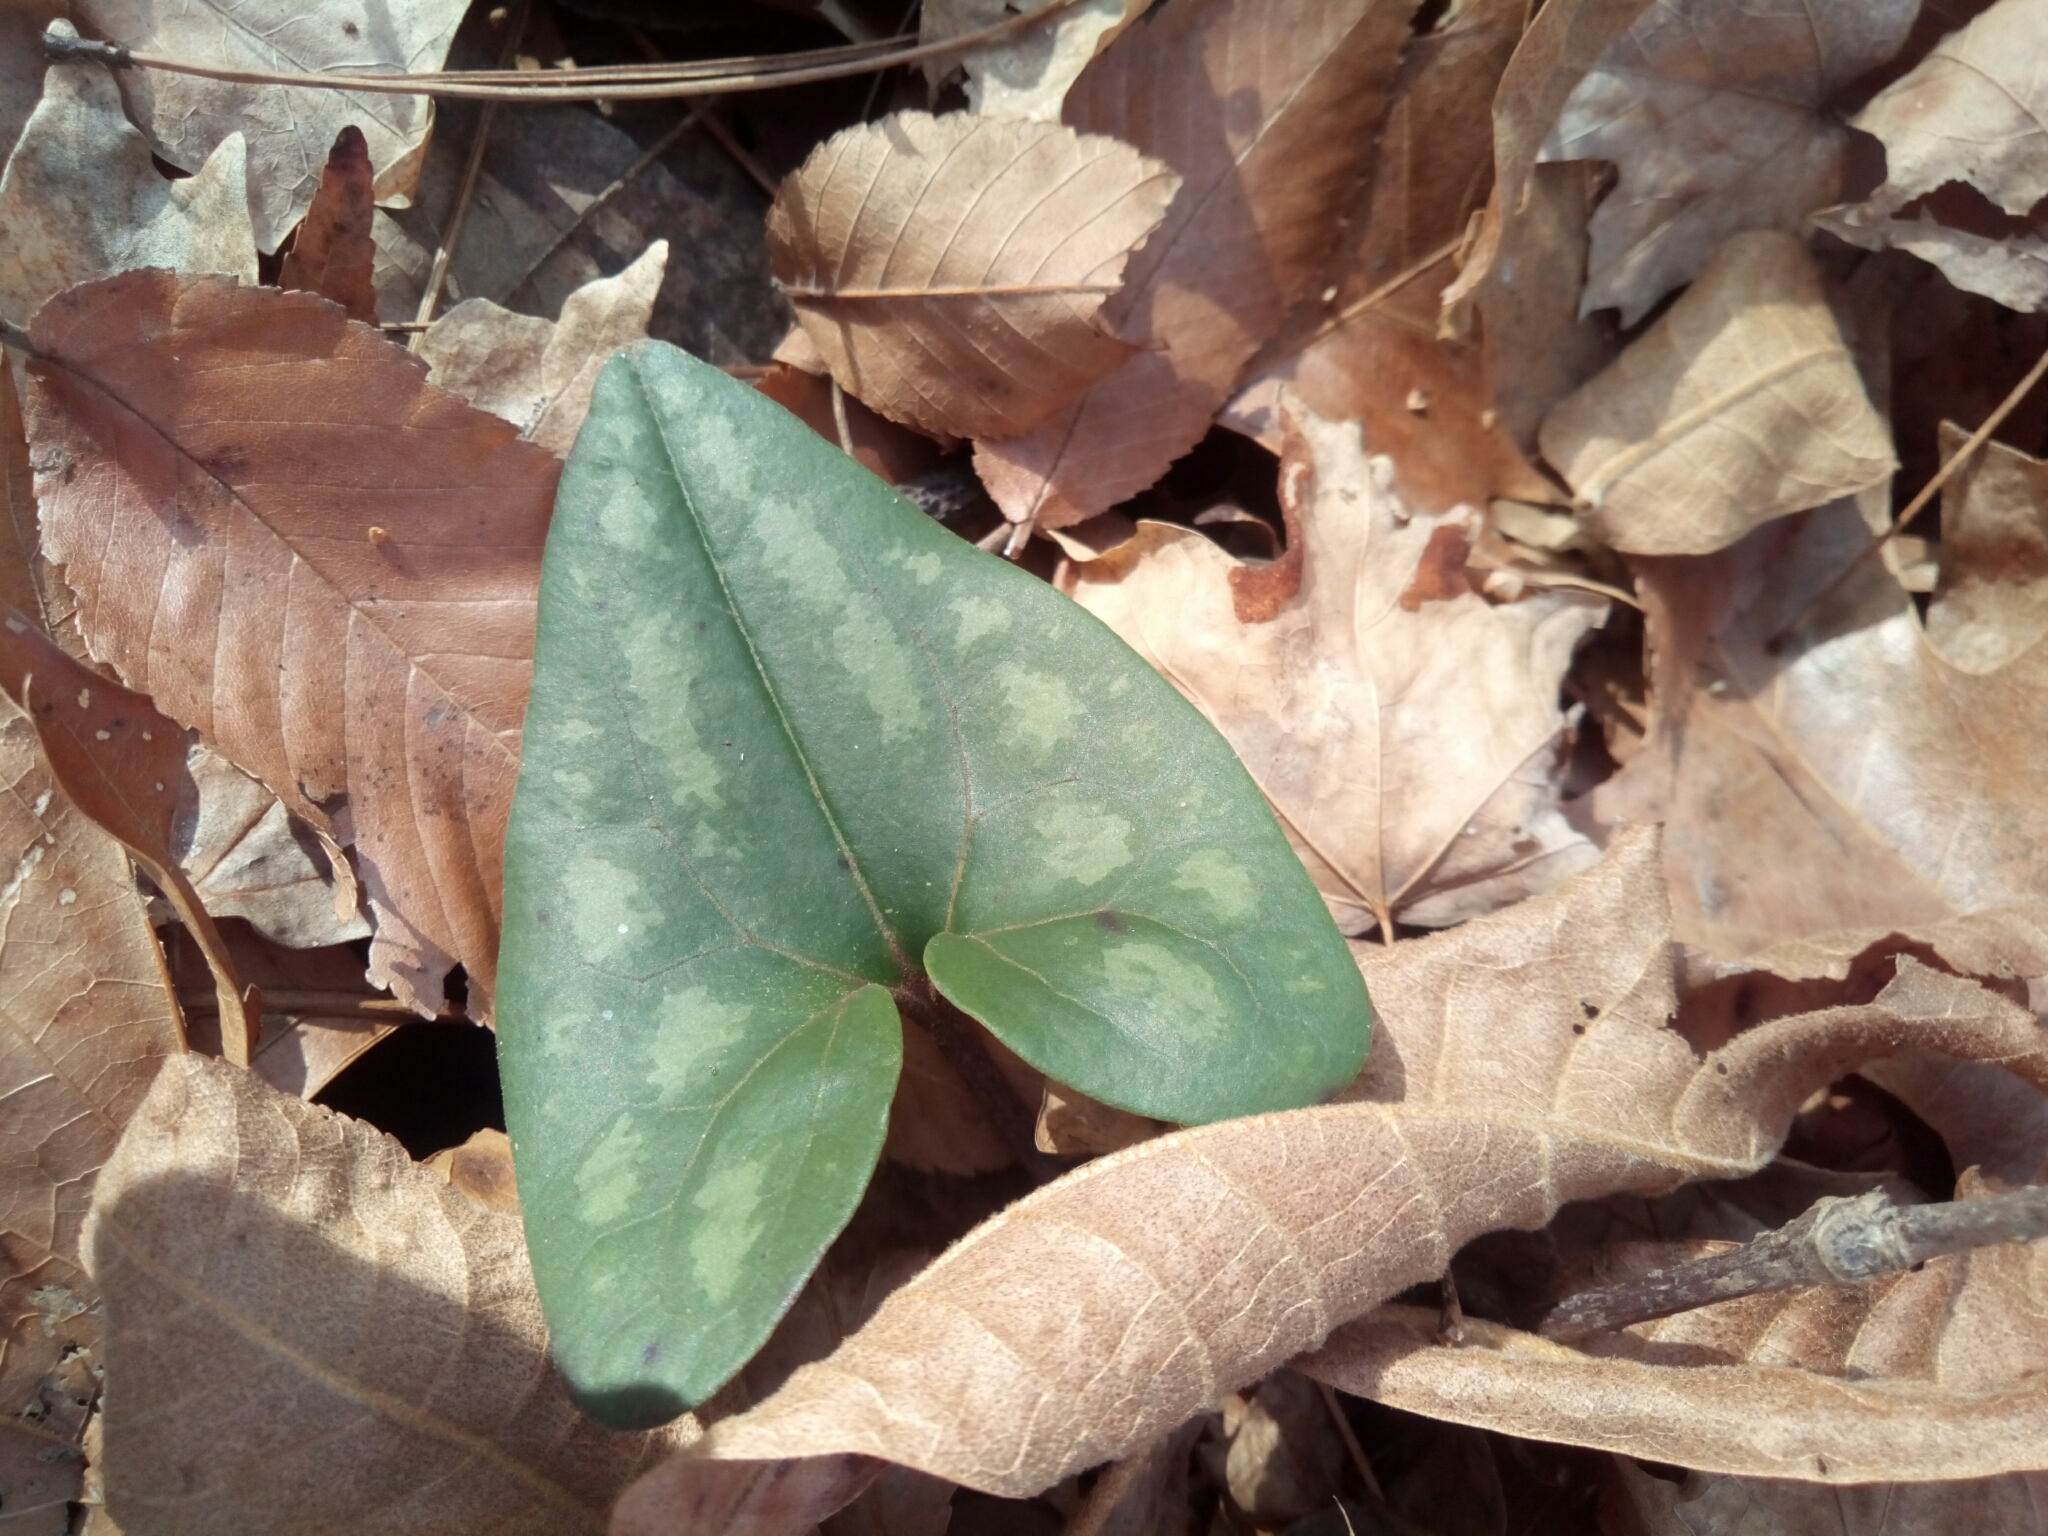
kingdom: Plantae
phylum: Tracheophyta
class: Magnoliopsida
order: Piperales
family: Aristolochiaceae
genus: Hexastylis
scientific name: Hexastylis arifolia
